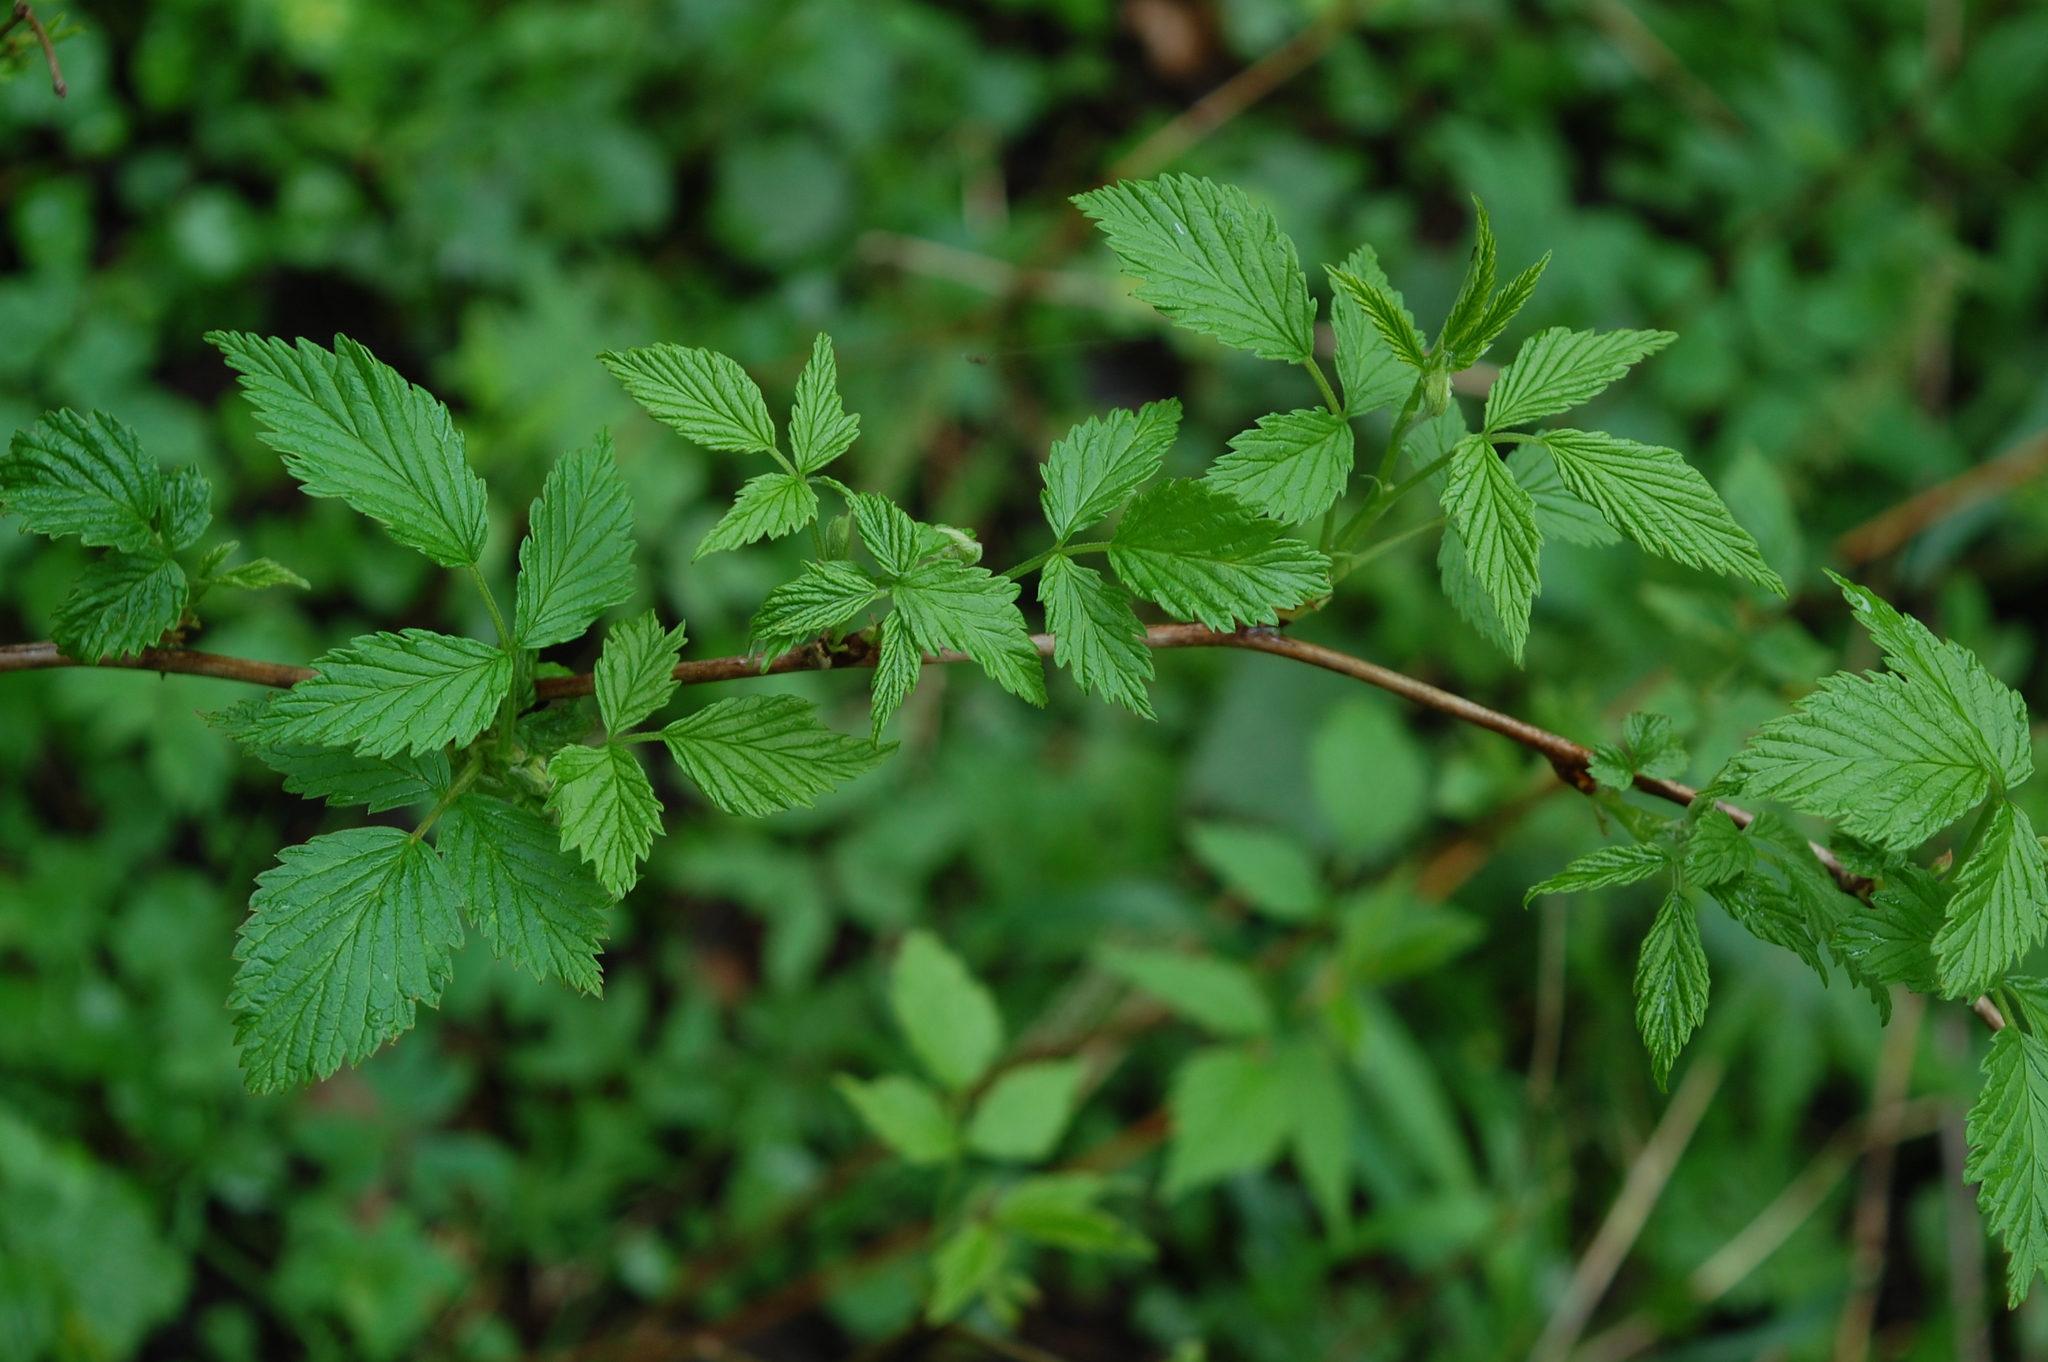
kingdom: Plantae
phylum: Tracheophyta
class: Magnoliopsida
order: Rosales
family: Rosaceae
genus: Rubus
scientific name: Rubus idaeus
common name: Raspberry
